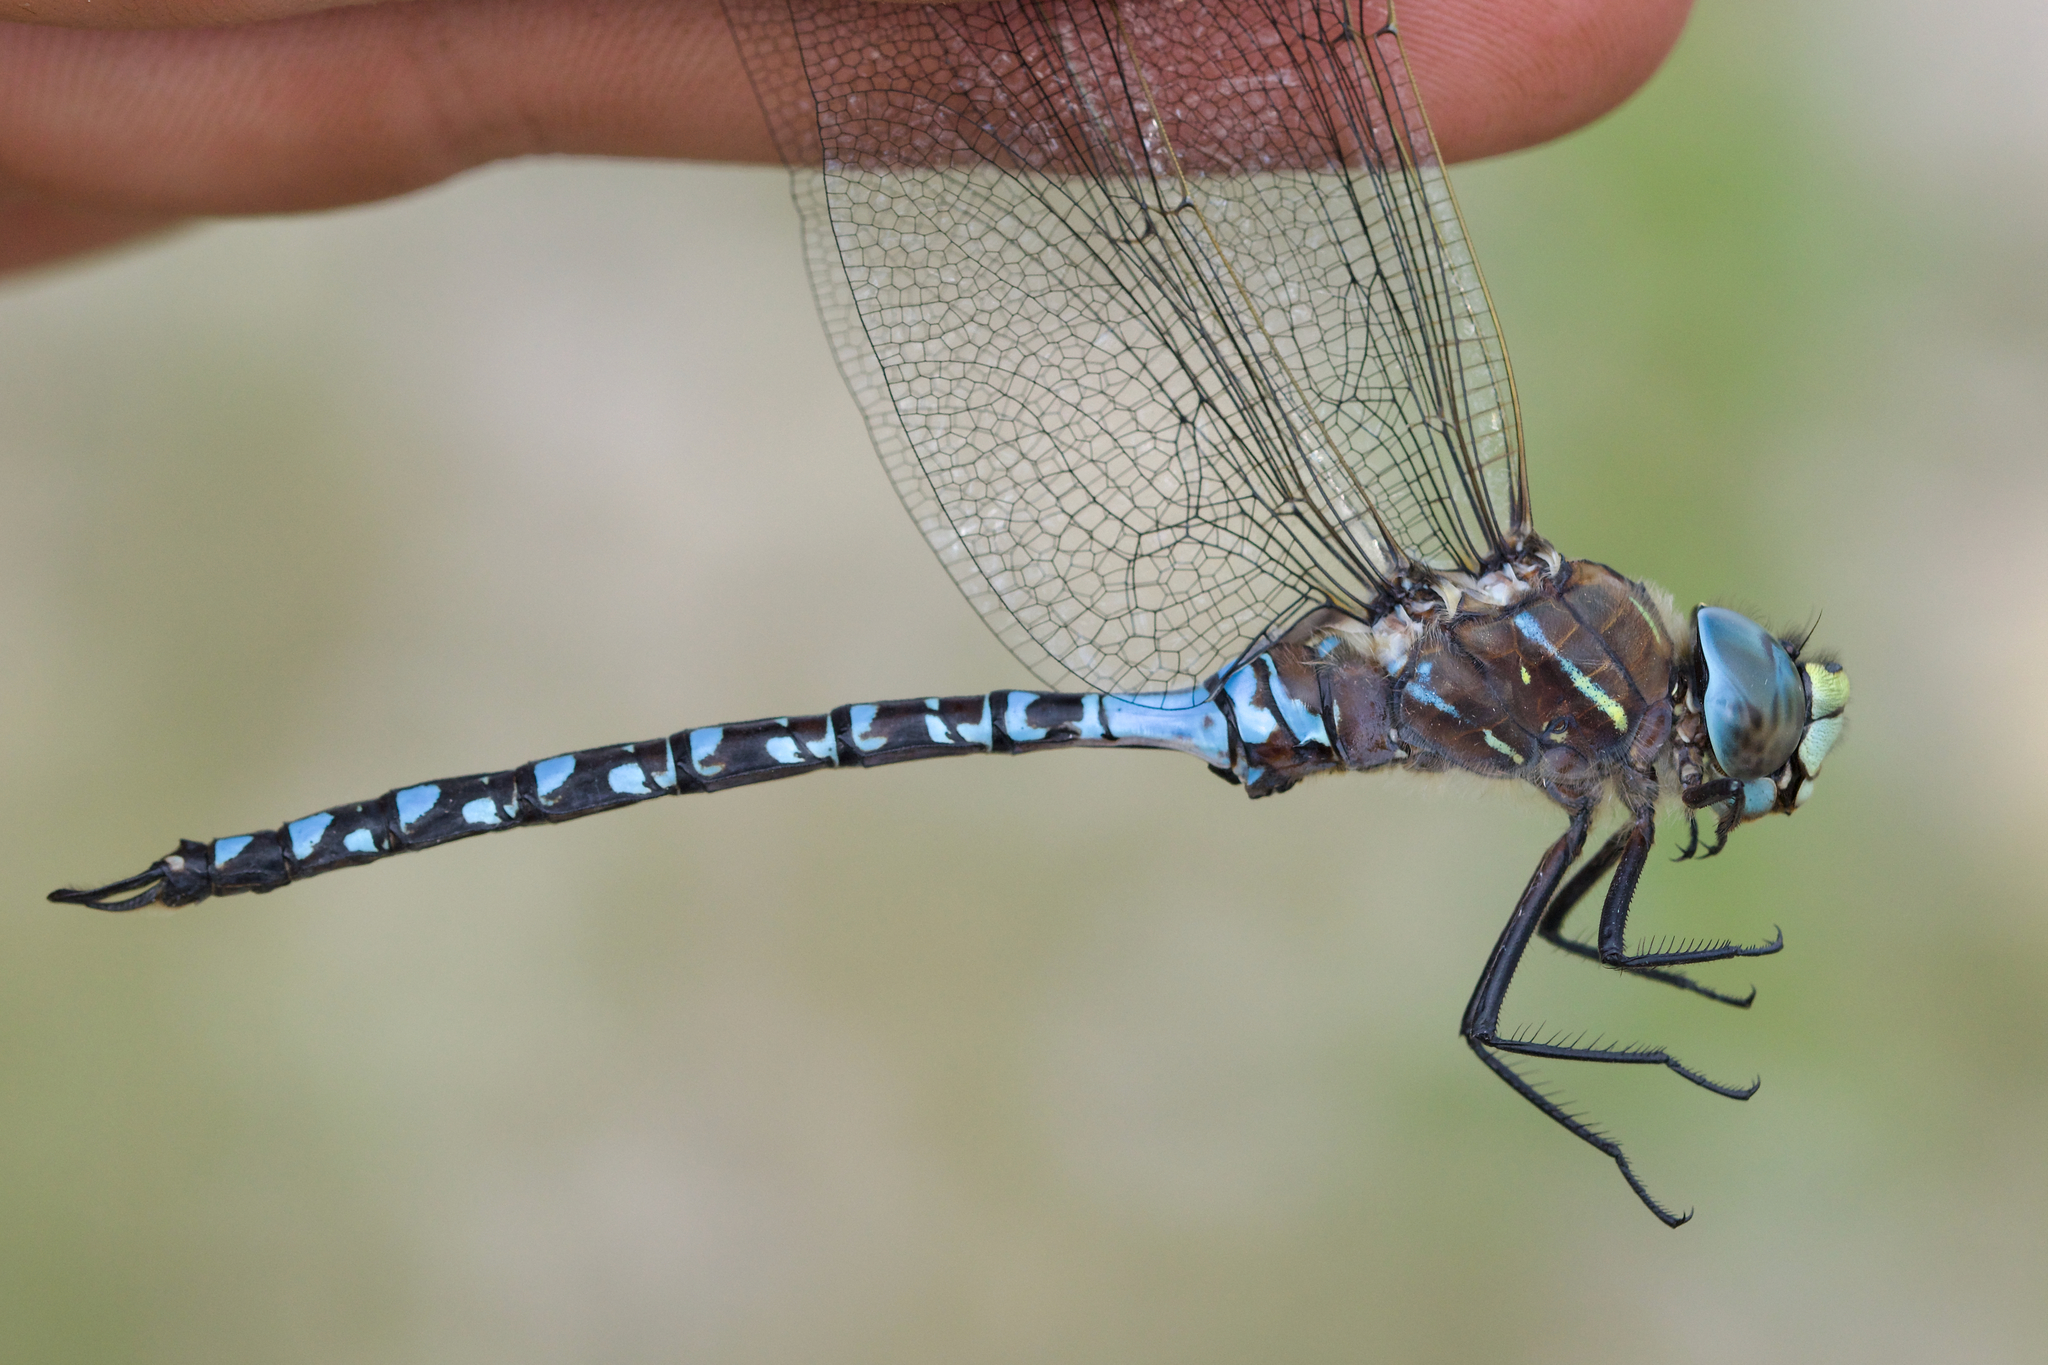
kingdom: Animalia
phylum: Arthropoda
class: Insecta
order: Odonata
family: Aeshnidae
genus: Aeshna
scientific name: Aeshna interrupta
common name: Variable darner
